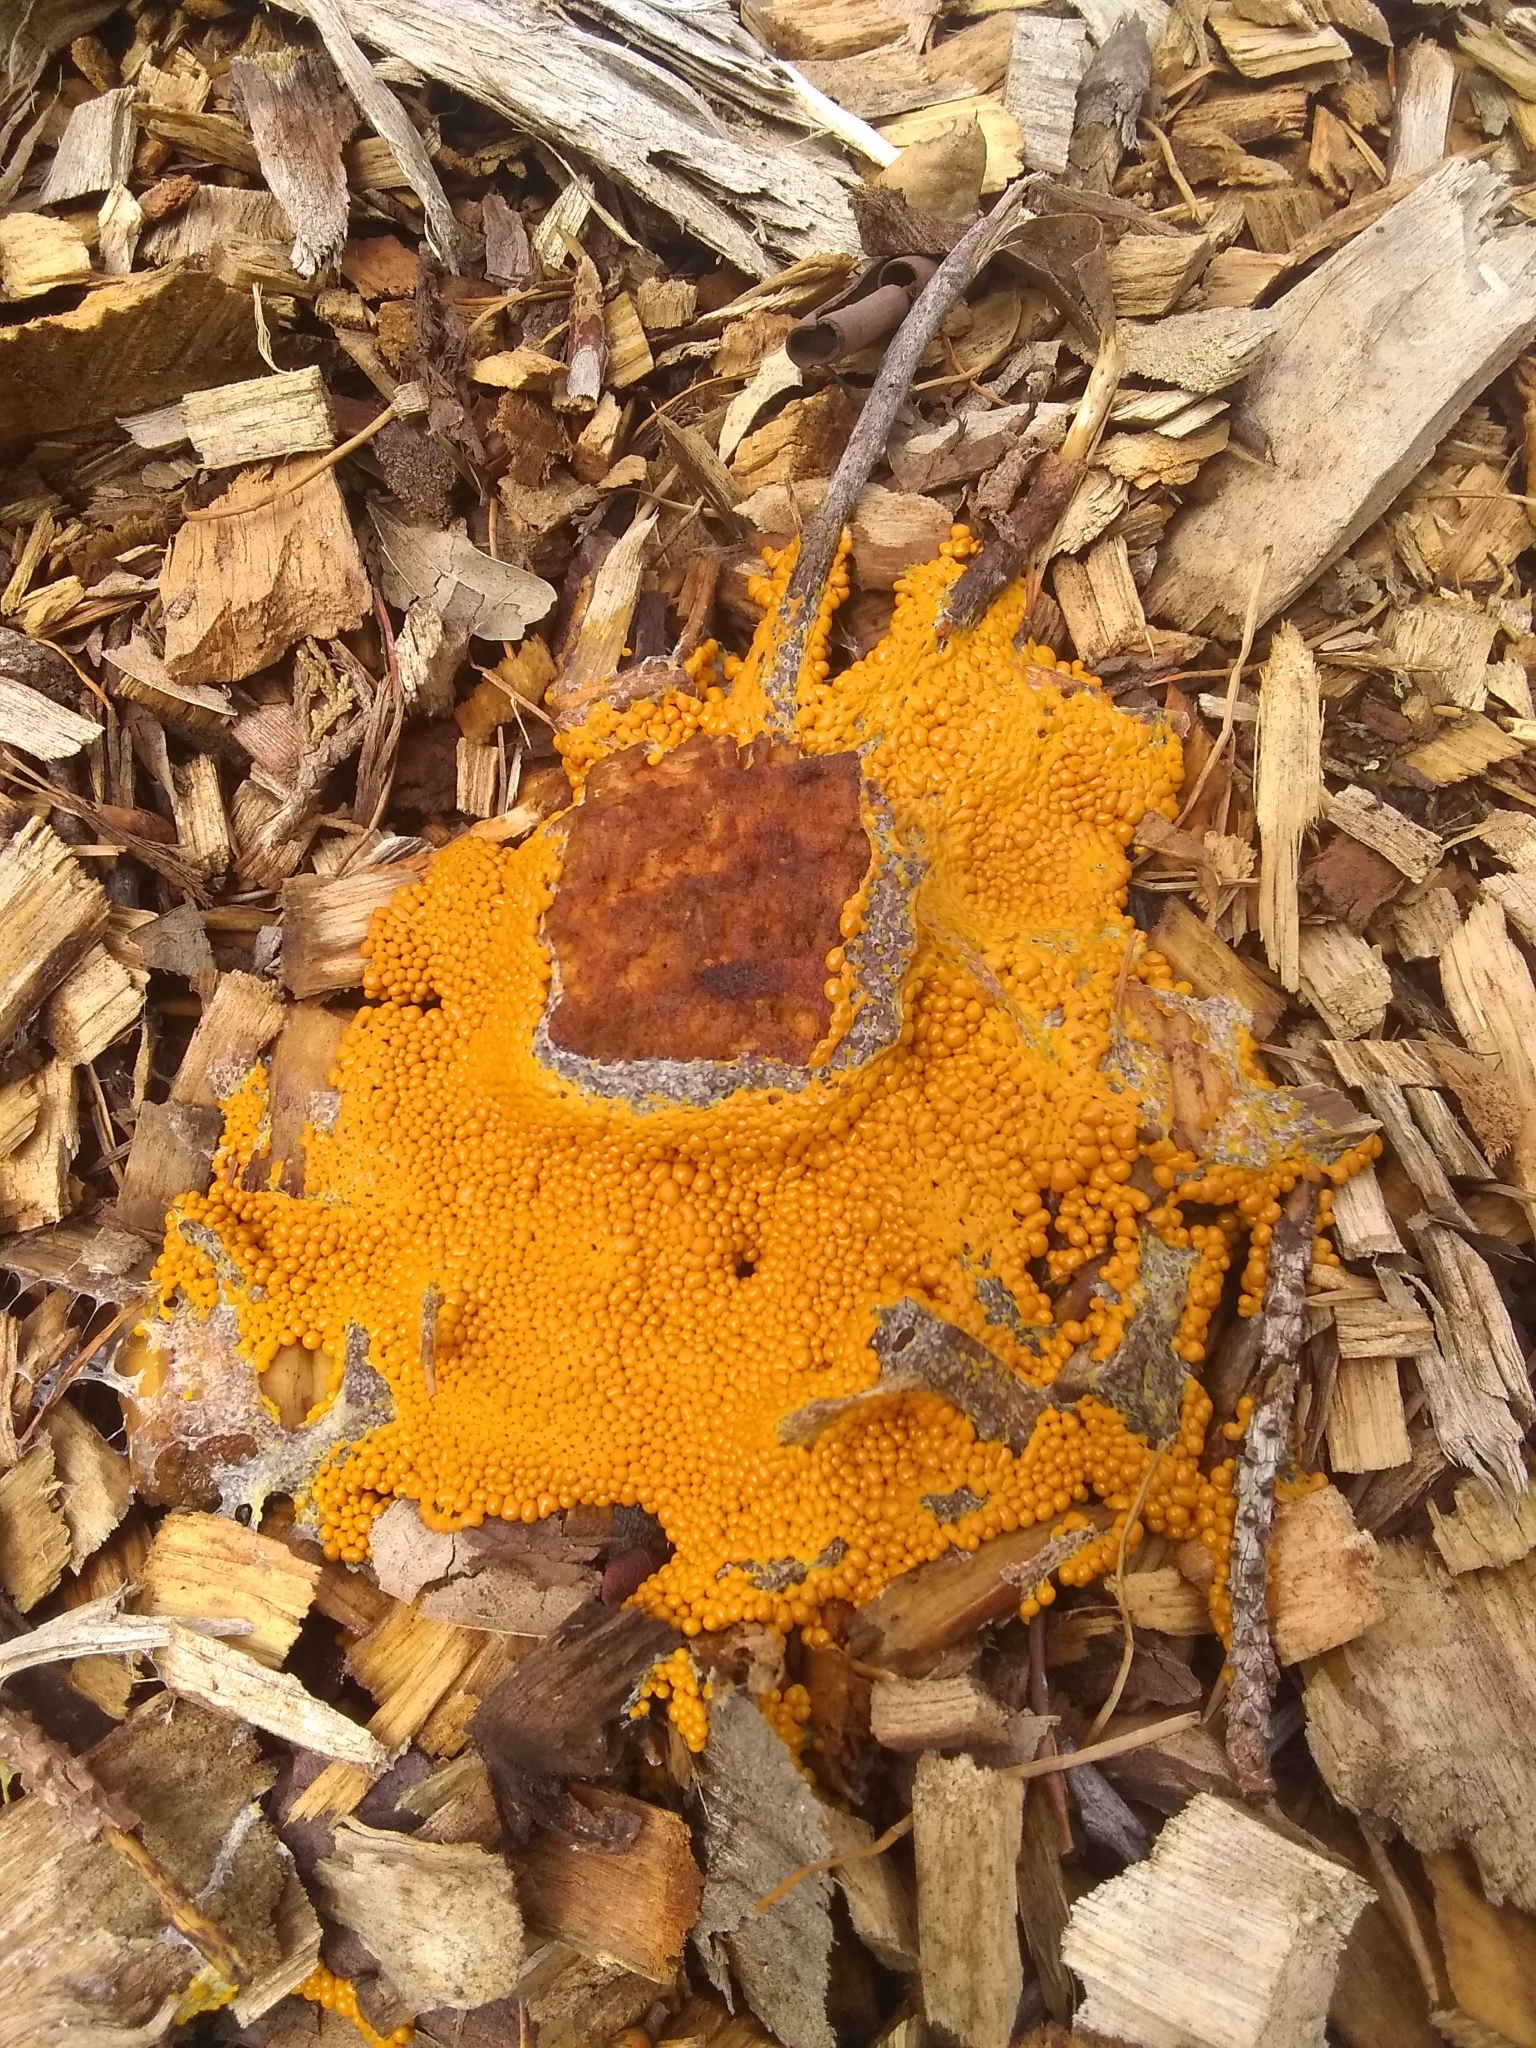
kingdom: Protozoa
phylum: Mycetozoa
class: Myxomycetes
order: Physarales
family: Physaraceae
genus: Leocarpus
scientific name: Leocarpus fragilis
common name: Insect-egg slime
